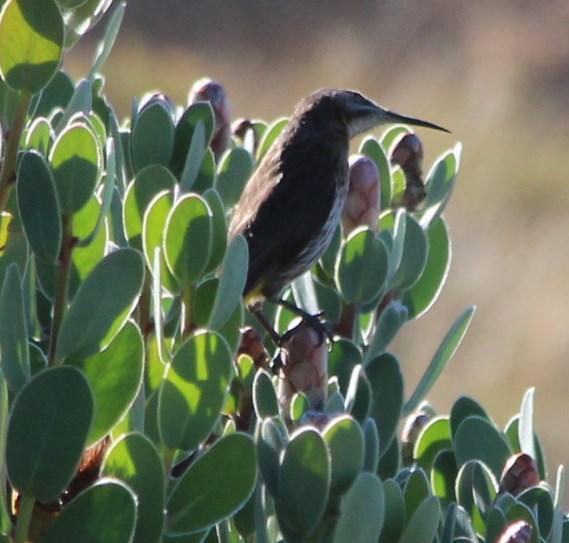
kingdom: Animalia
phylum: Chordata
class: Aves
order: Passeriformes
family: Promeropidae
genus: Promerops
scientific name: Promerops cafer
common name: Cape sugarbird
